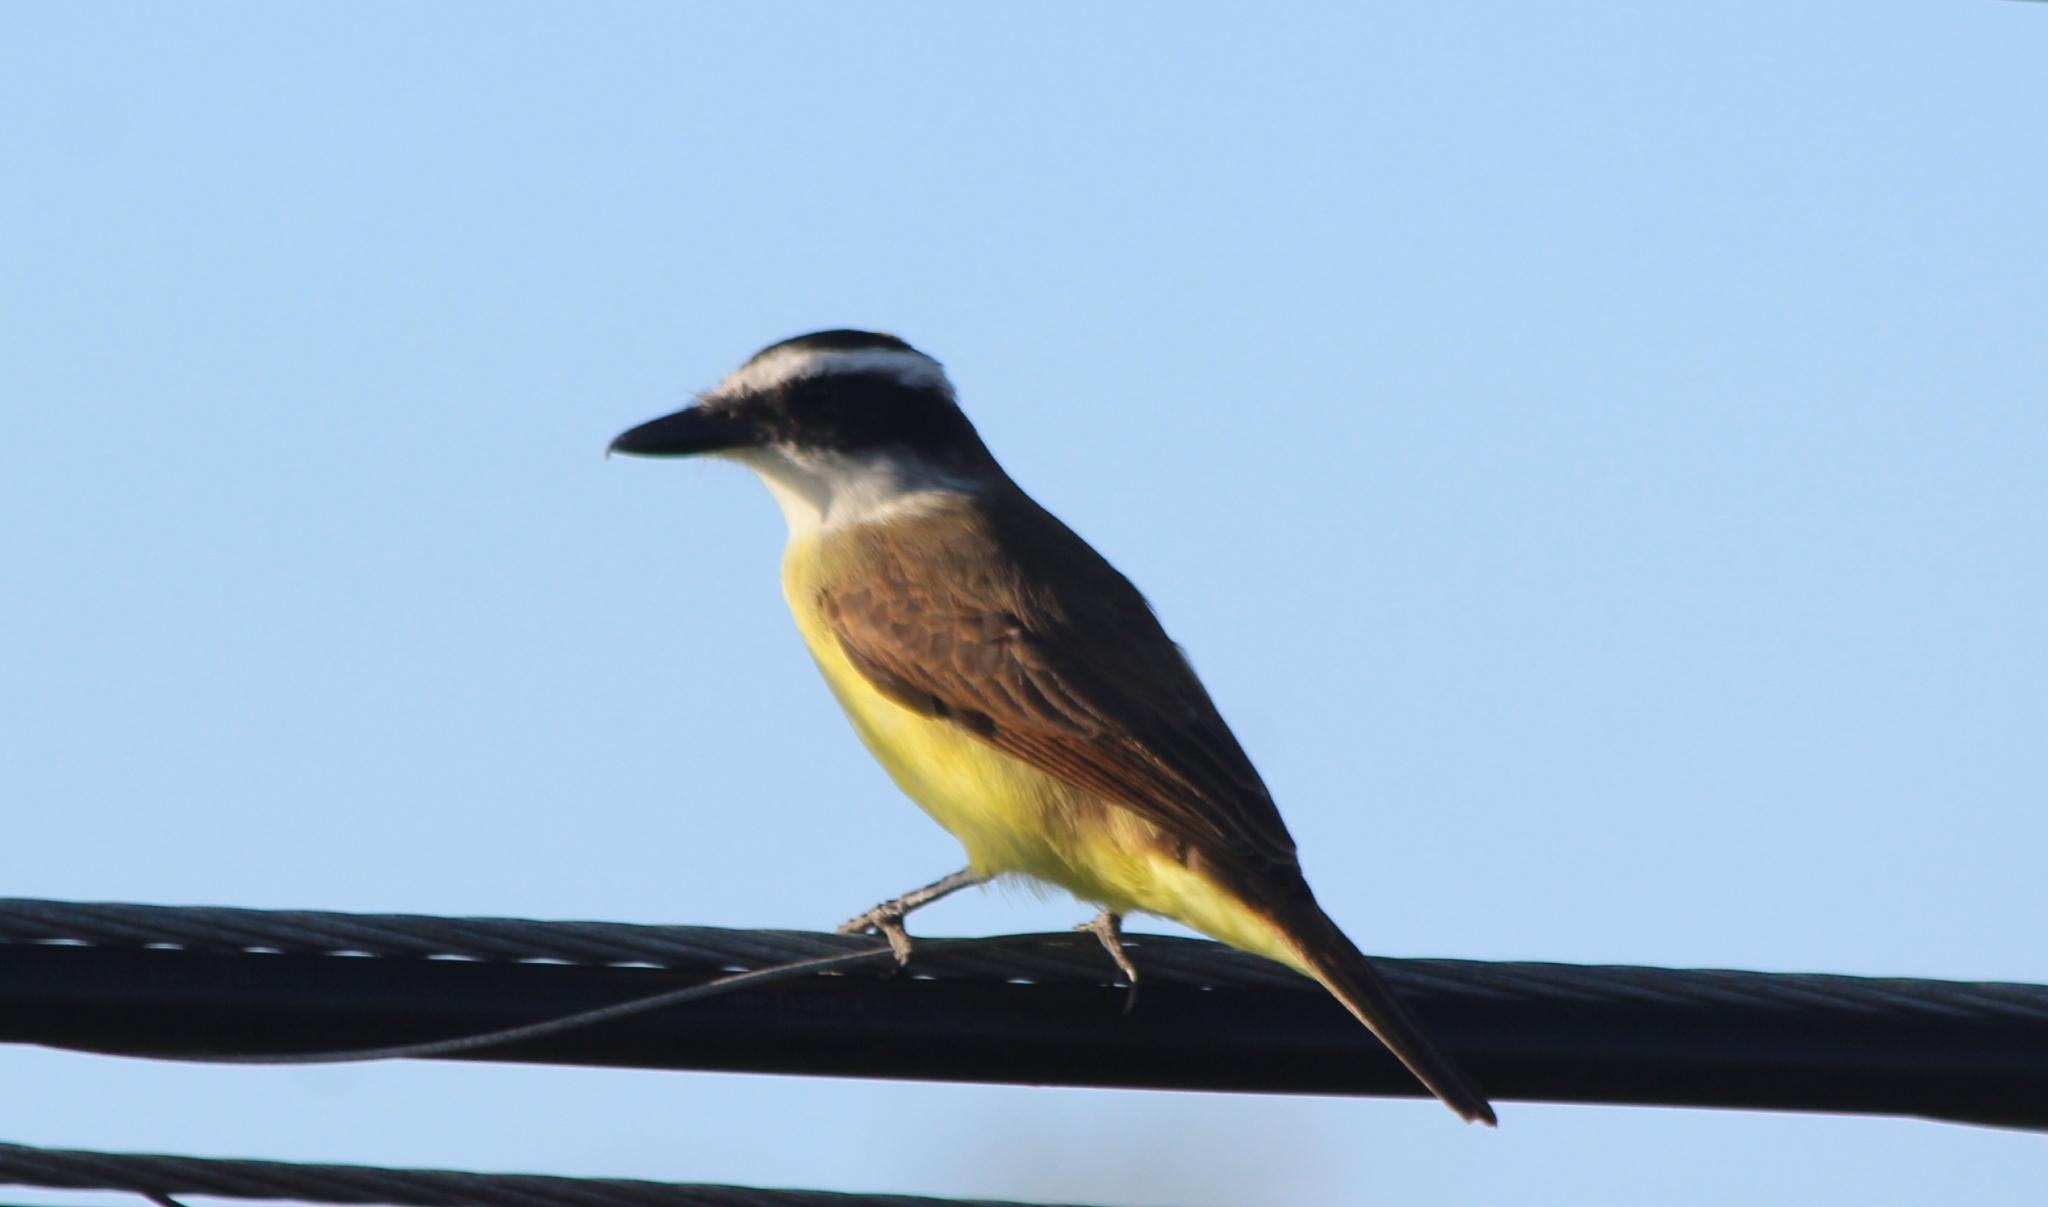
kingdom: Animalia
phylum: Chordata
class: Aves
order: Passeriformes
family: Tyrannidae
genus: Pitangus
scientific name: Pitangus sulphuratus
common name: Great kiskadee
